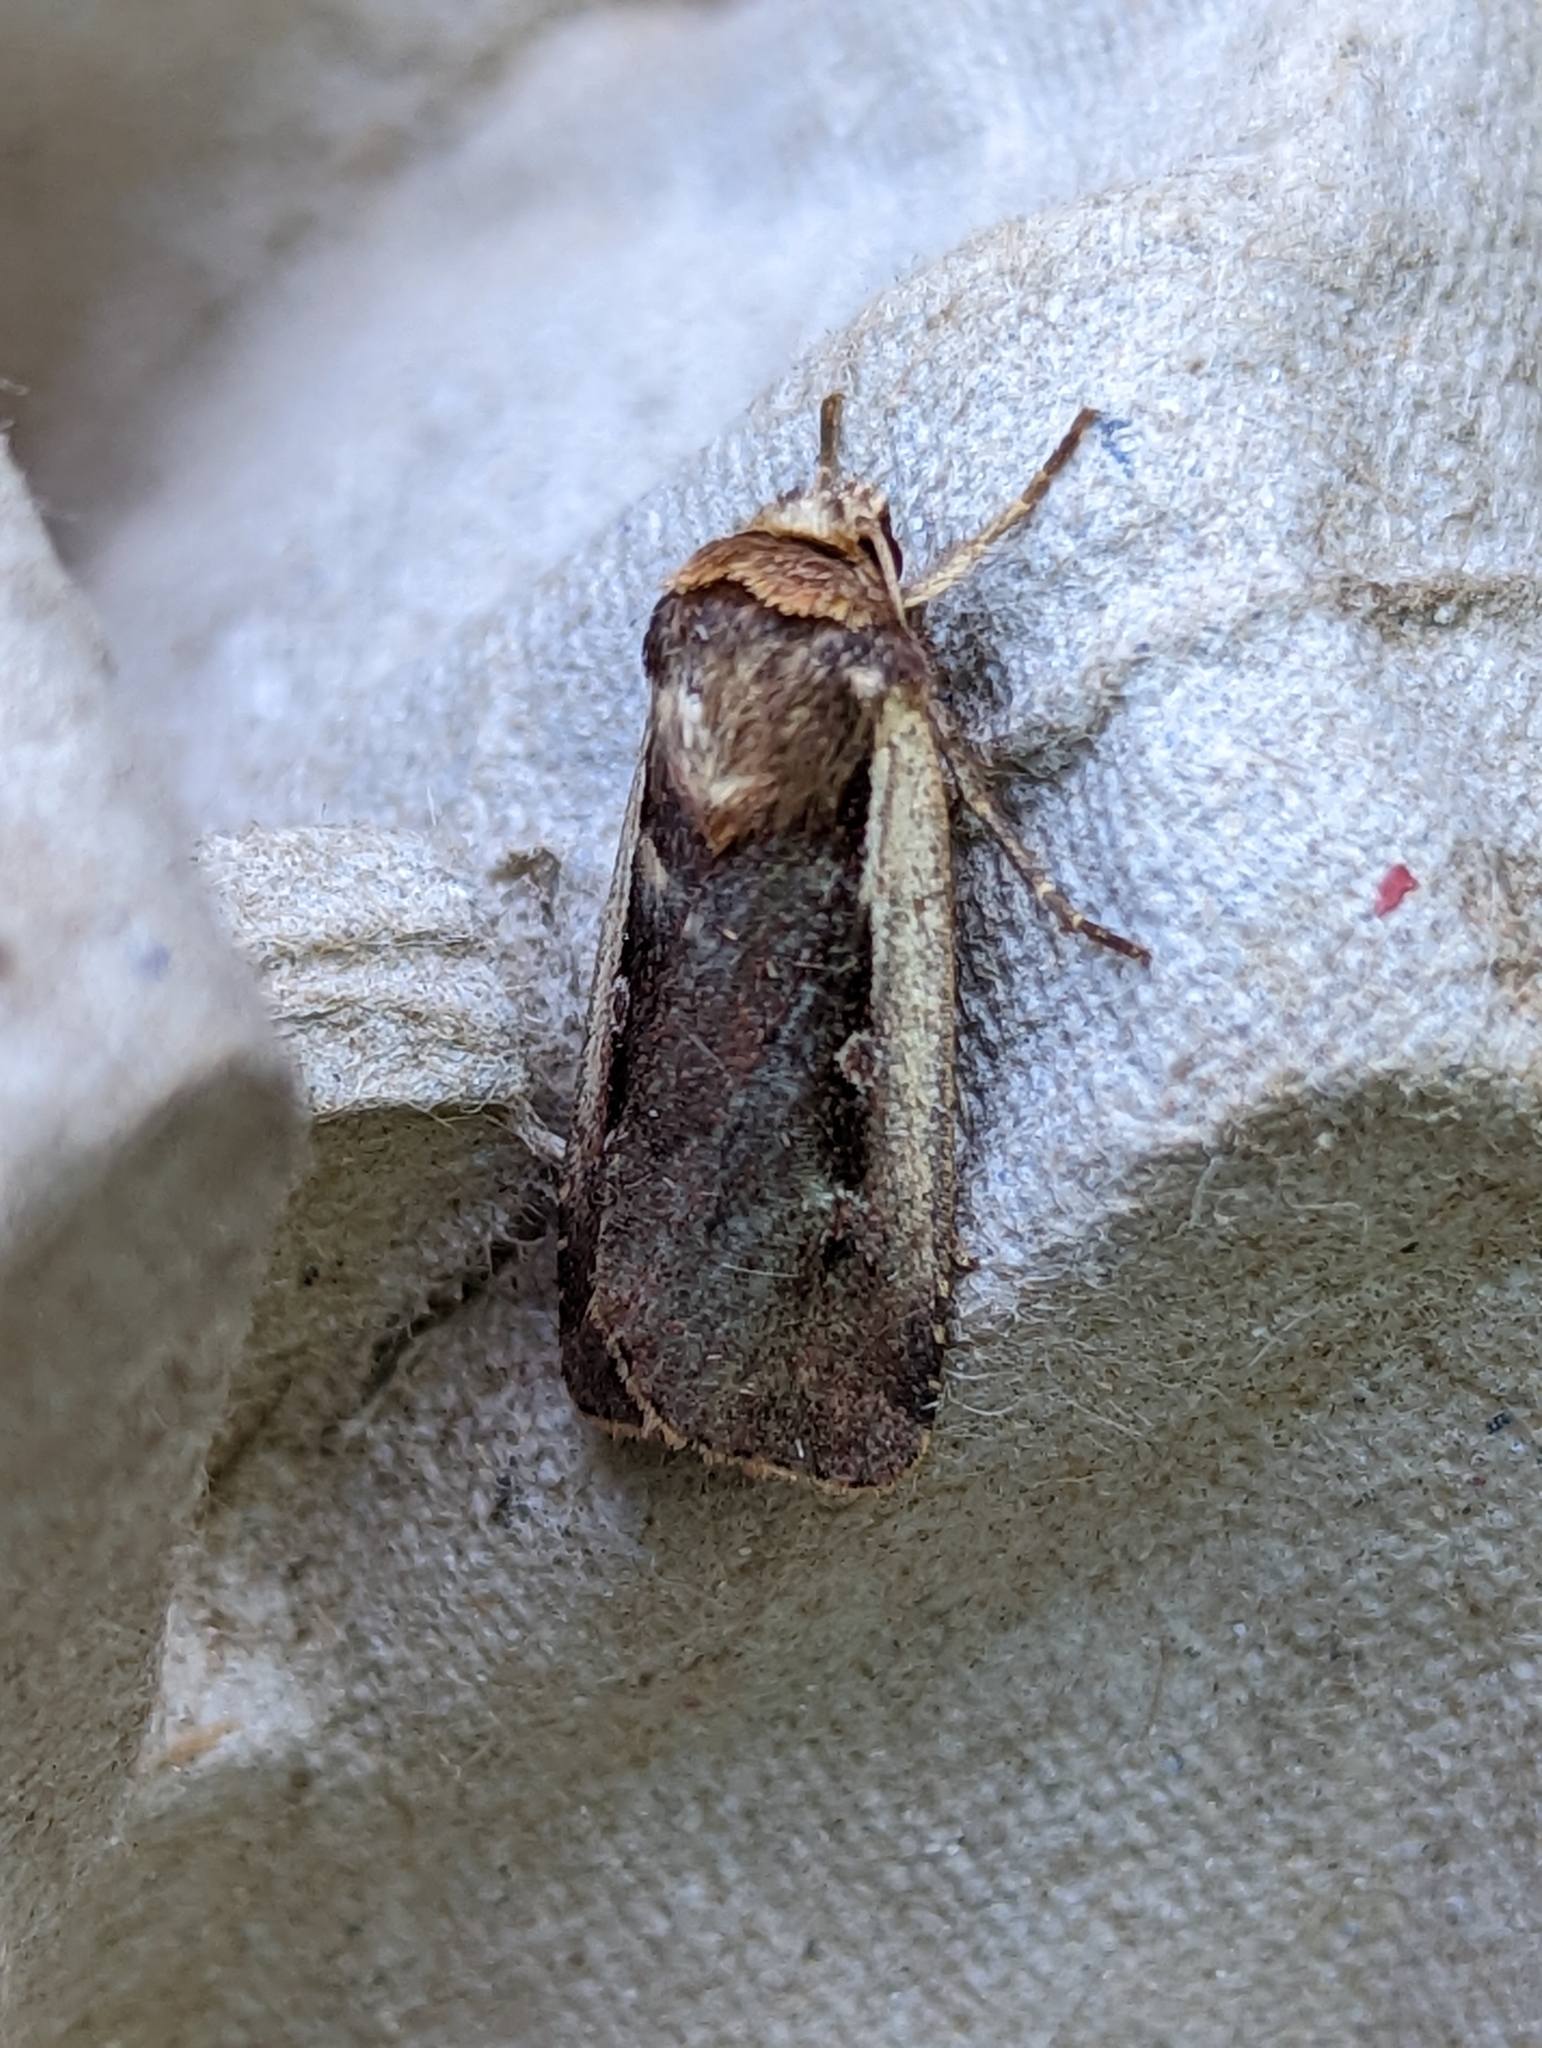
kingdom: Animalia
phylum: Arthropoda
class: Insecta
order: Lepidoptera
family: Noctuidae
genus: Ochropleura
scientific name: Ochropleura plecta
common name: Flame shoulder
